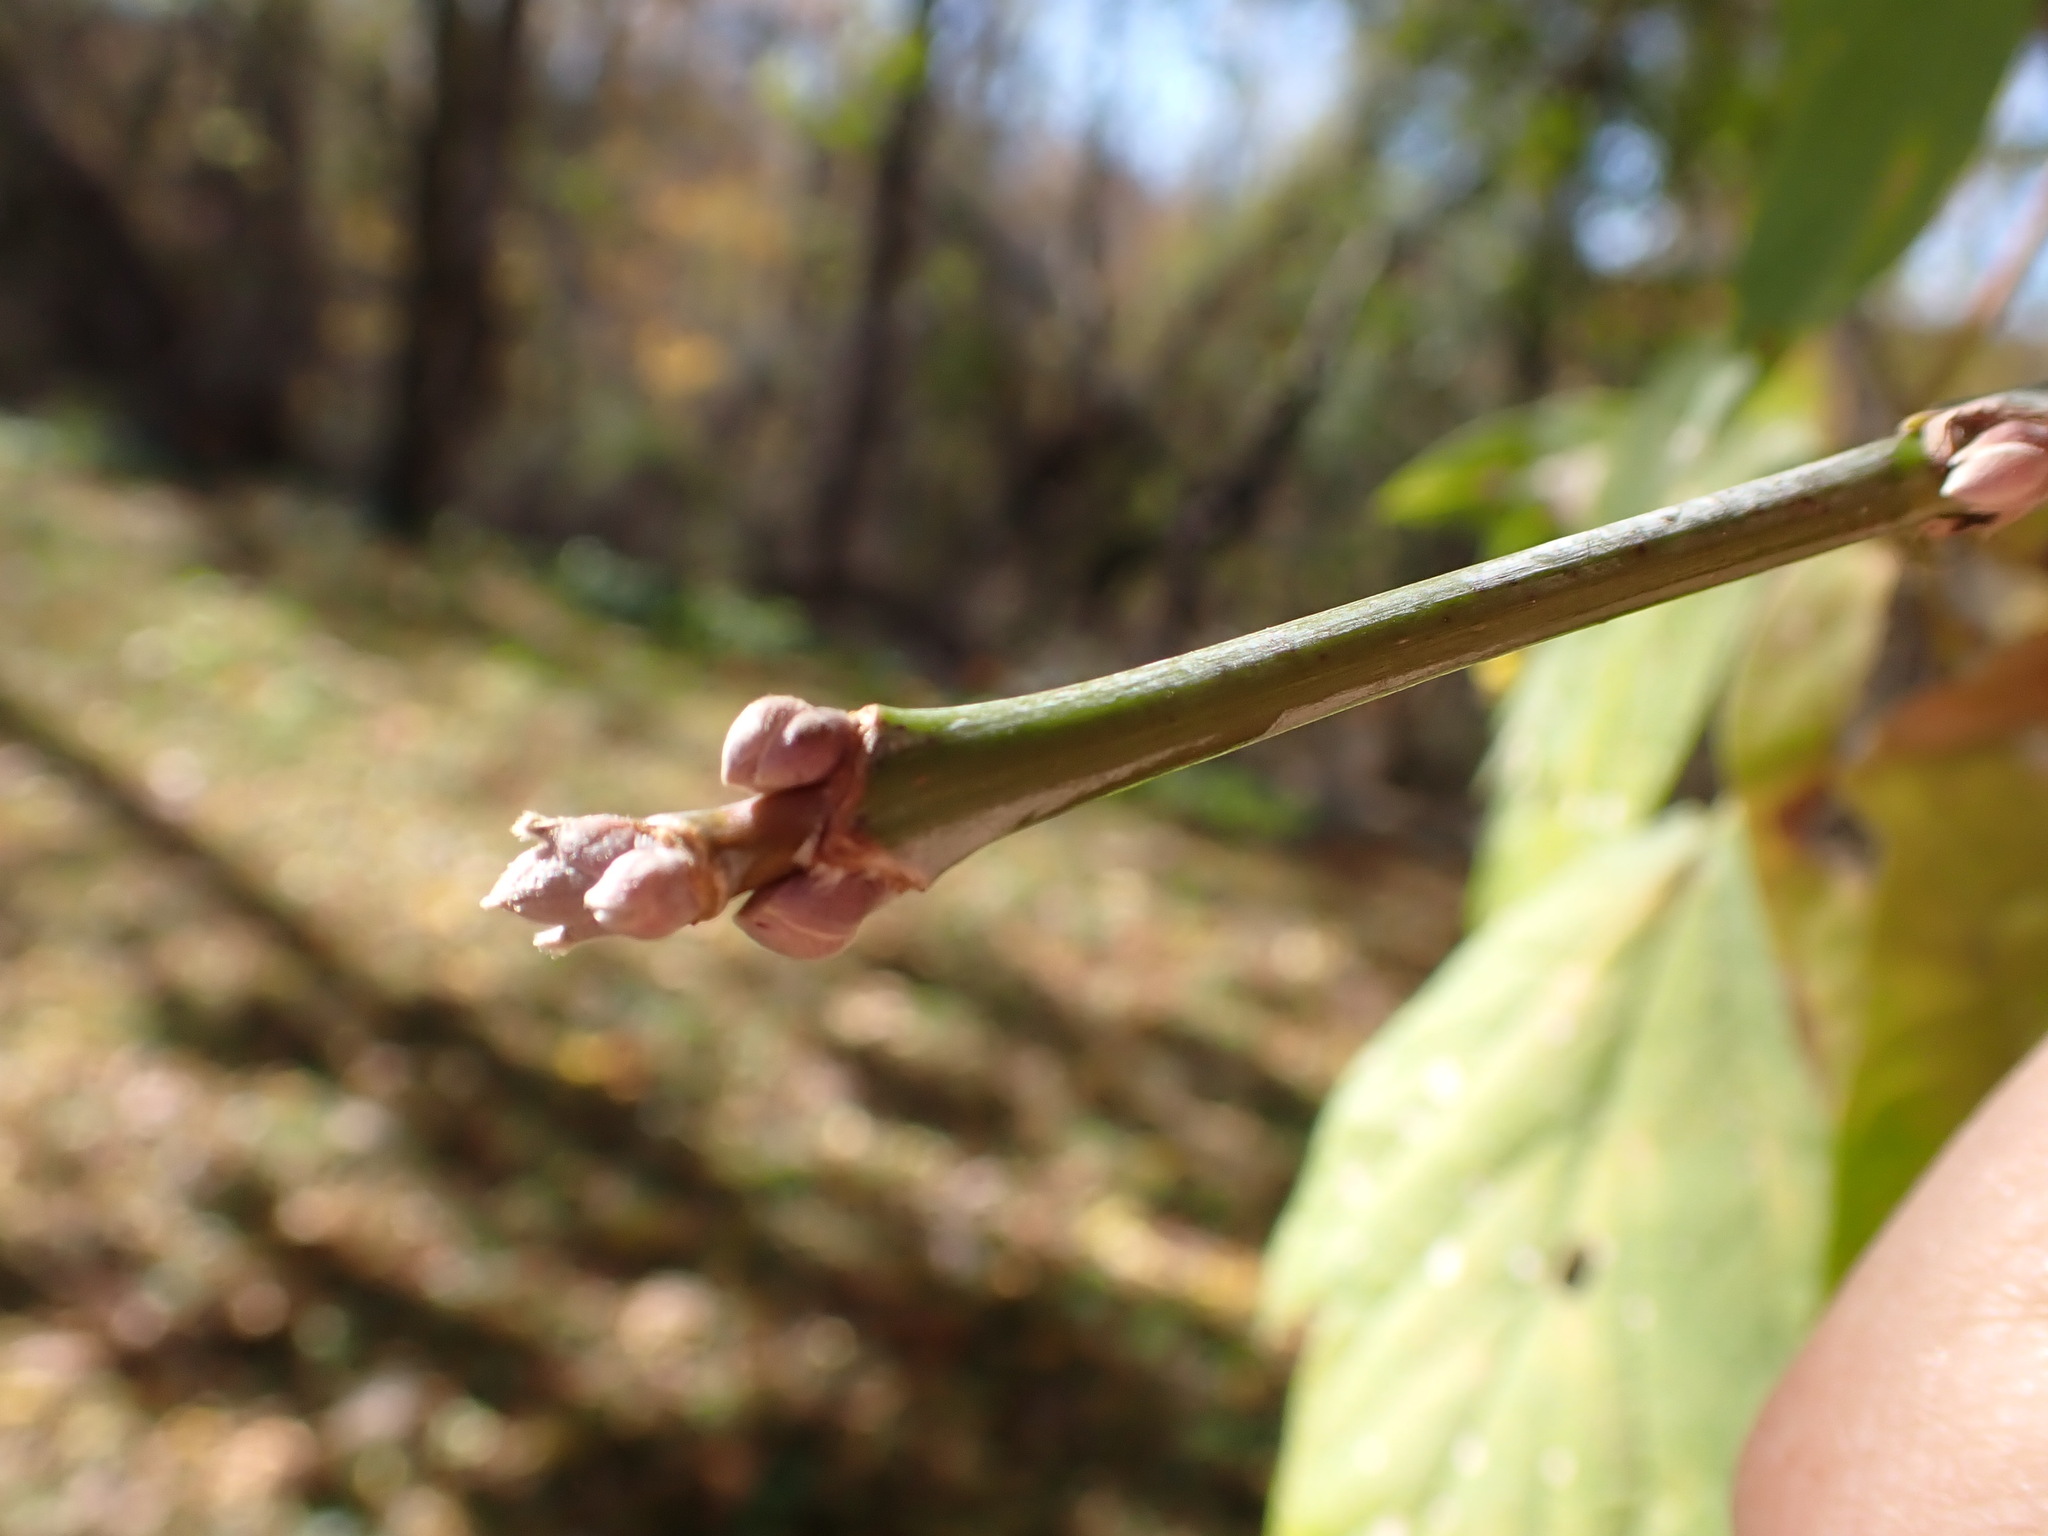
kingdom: Plantae
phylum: Tracheophyta
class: Magnoliopsida
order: Sapindales
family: Sapindaceae
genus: Acer
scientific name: Acer negundo
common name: Ashleaf maple
